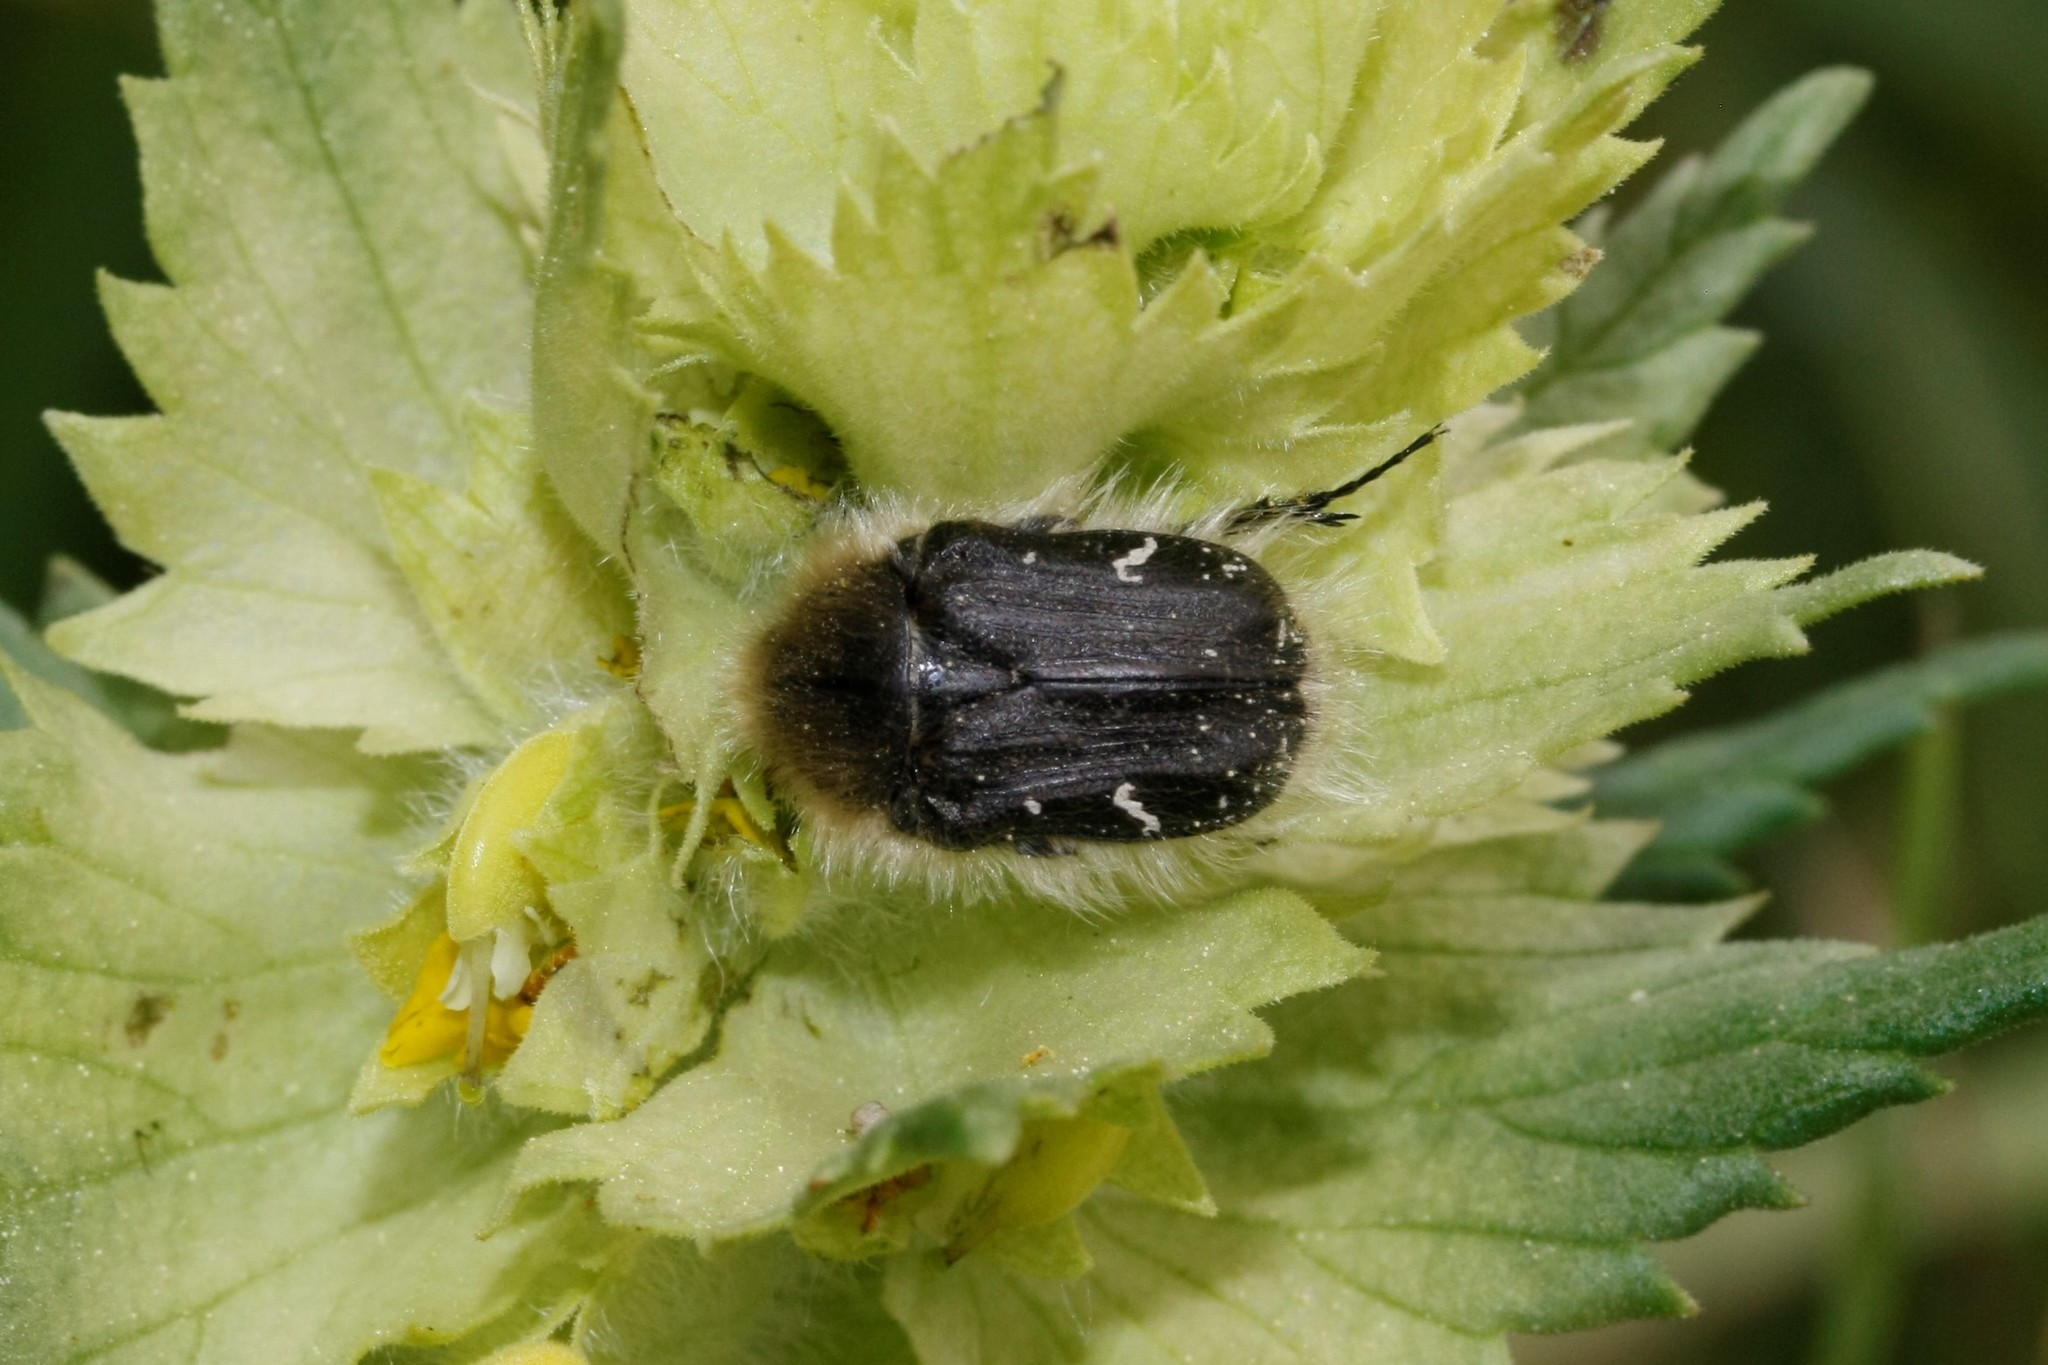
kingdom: Animalia
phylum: Arthropoda
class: Insecta
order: Coleoptera
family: Scarabaeidae
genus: Tropinota
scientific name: Tropinota hirta
